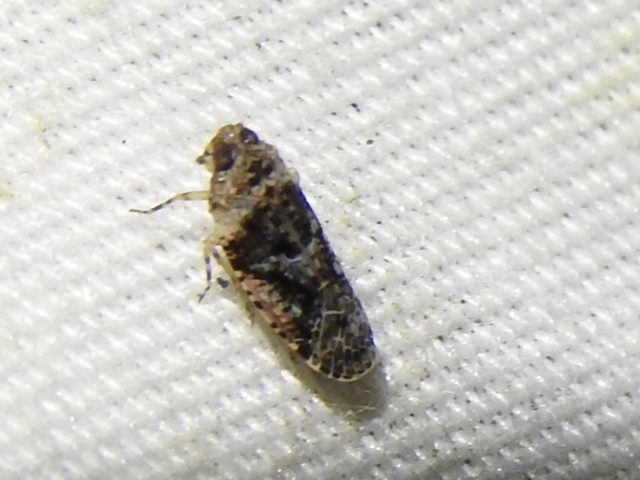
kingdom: Animalia
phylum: Arthropoda
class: Insecta
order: Hemiptera
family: Achilidae
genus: Catonia
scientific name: Catonia nava
